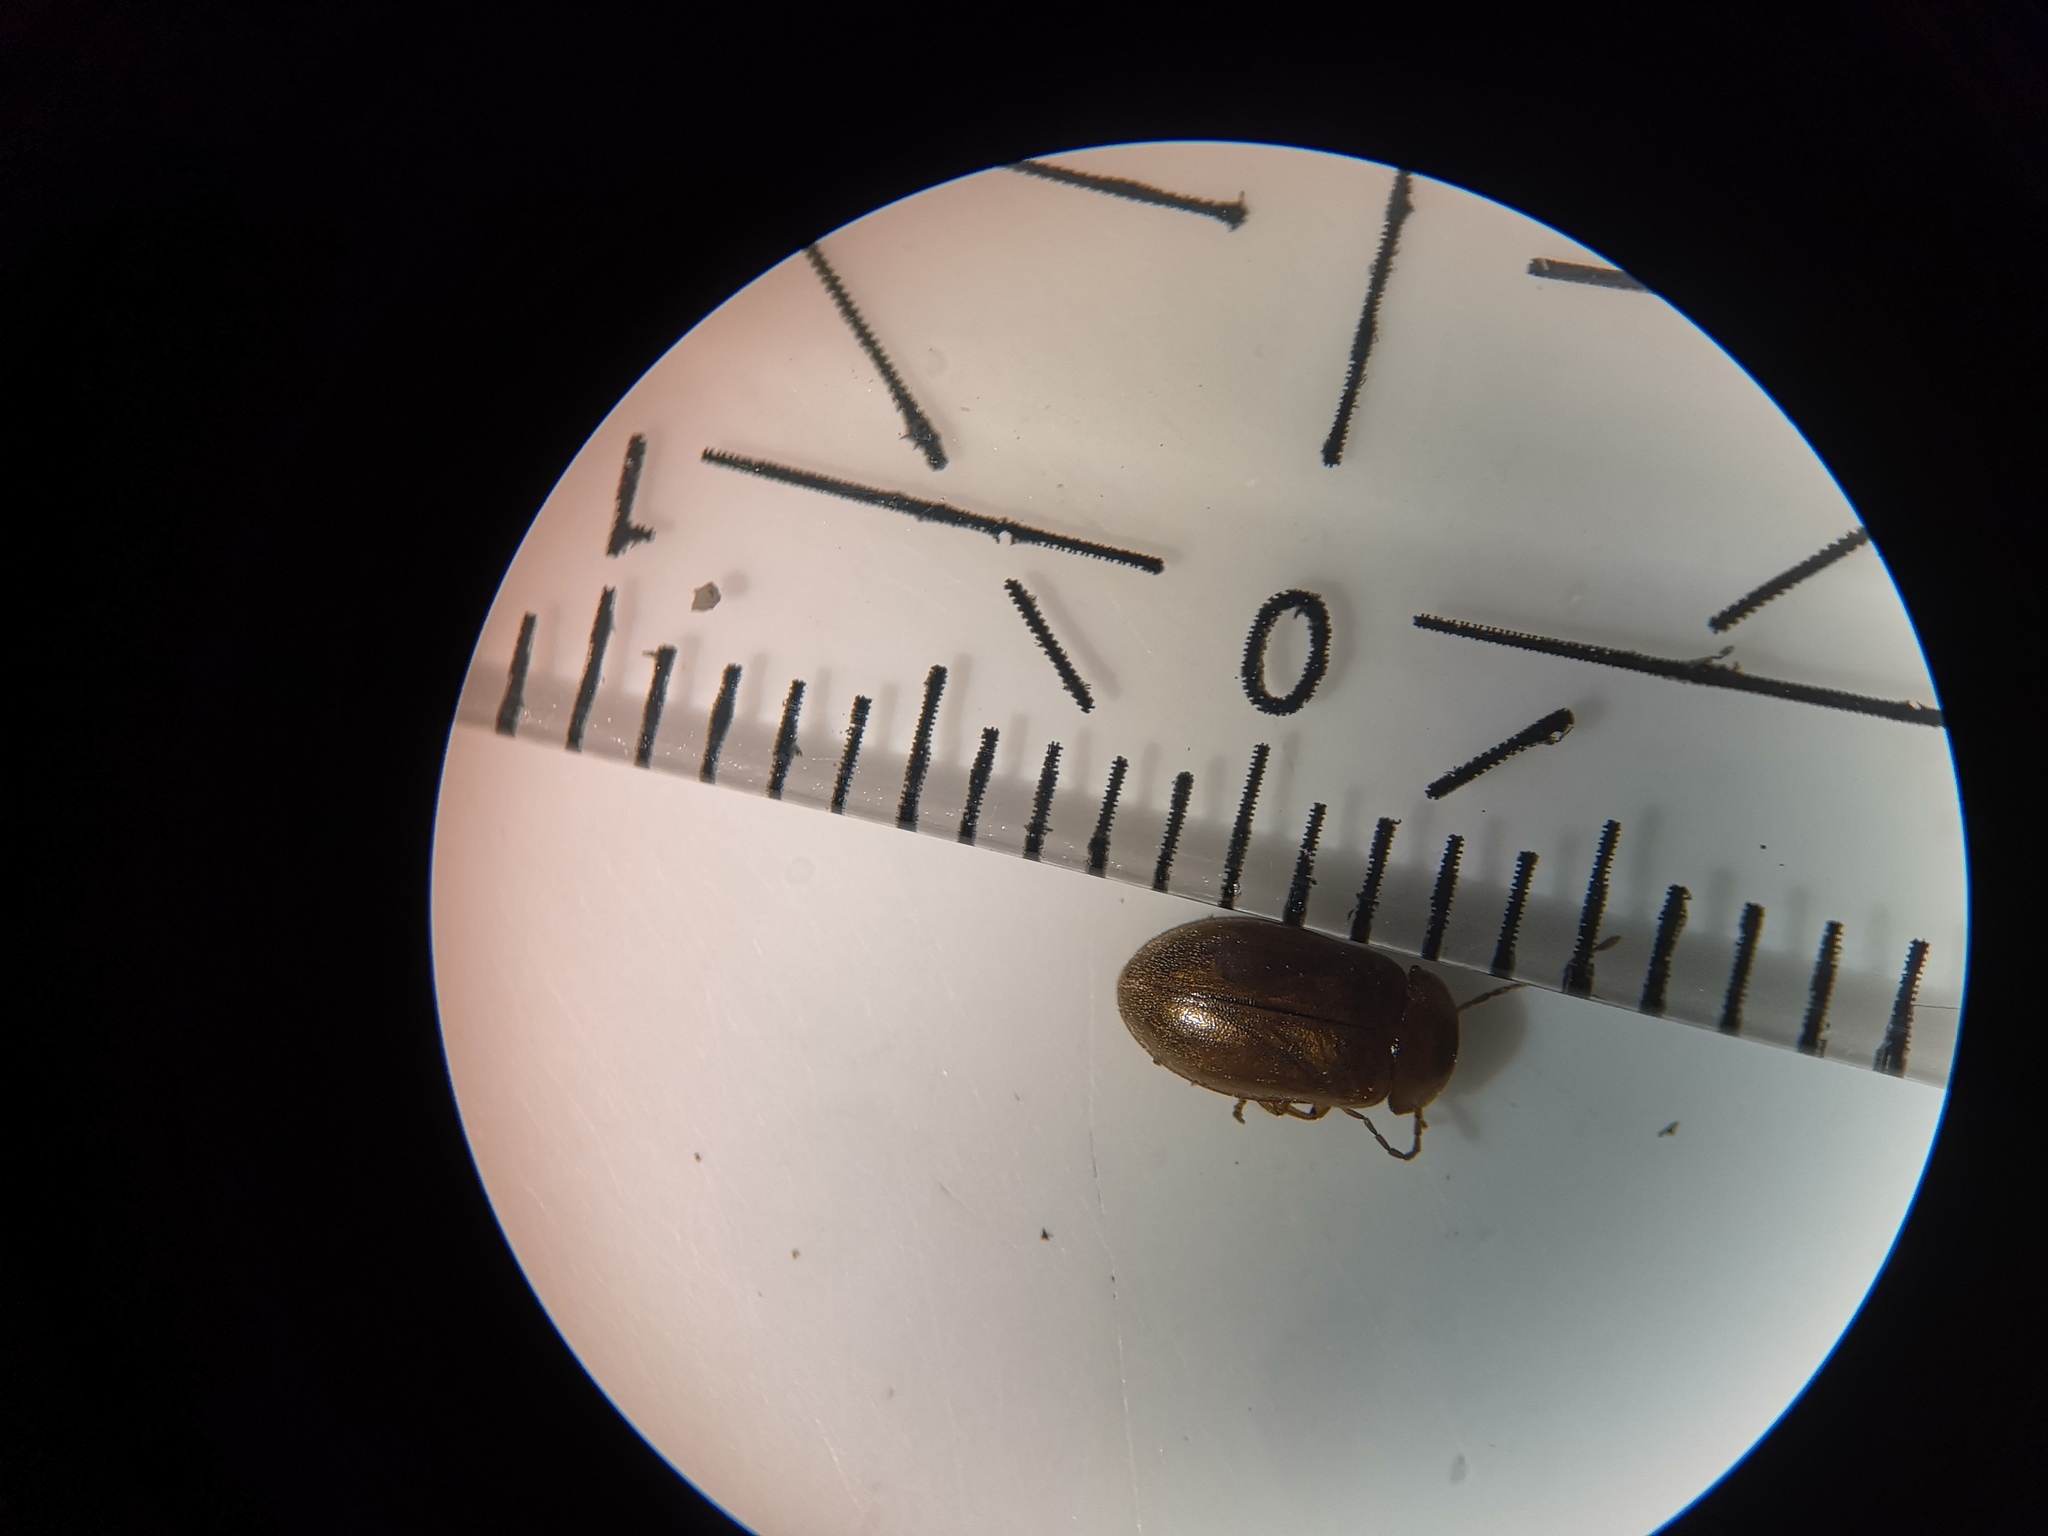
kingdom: Animalia
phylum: Arthropoda
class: Insecta
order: Coleoptera
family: Scirtidae
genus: Microcara
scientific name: Microcara testacea
